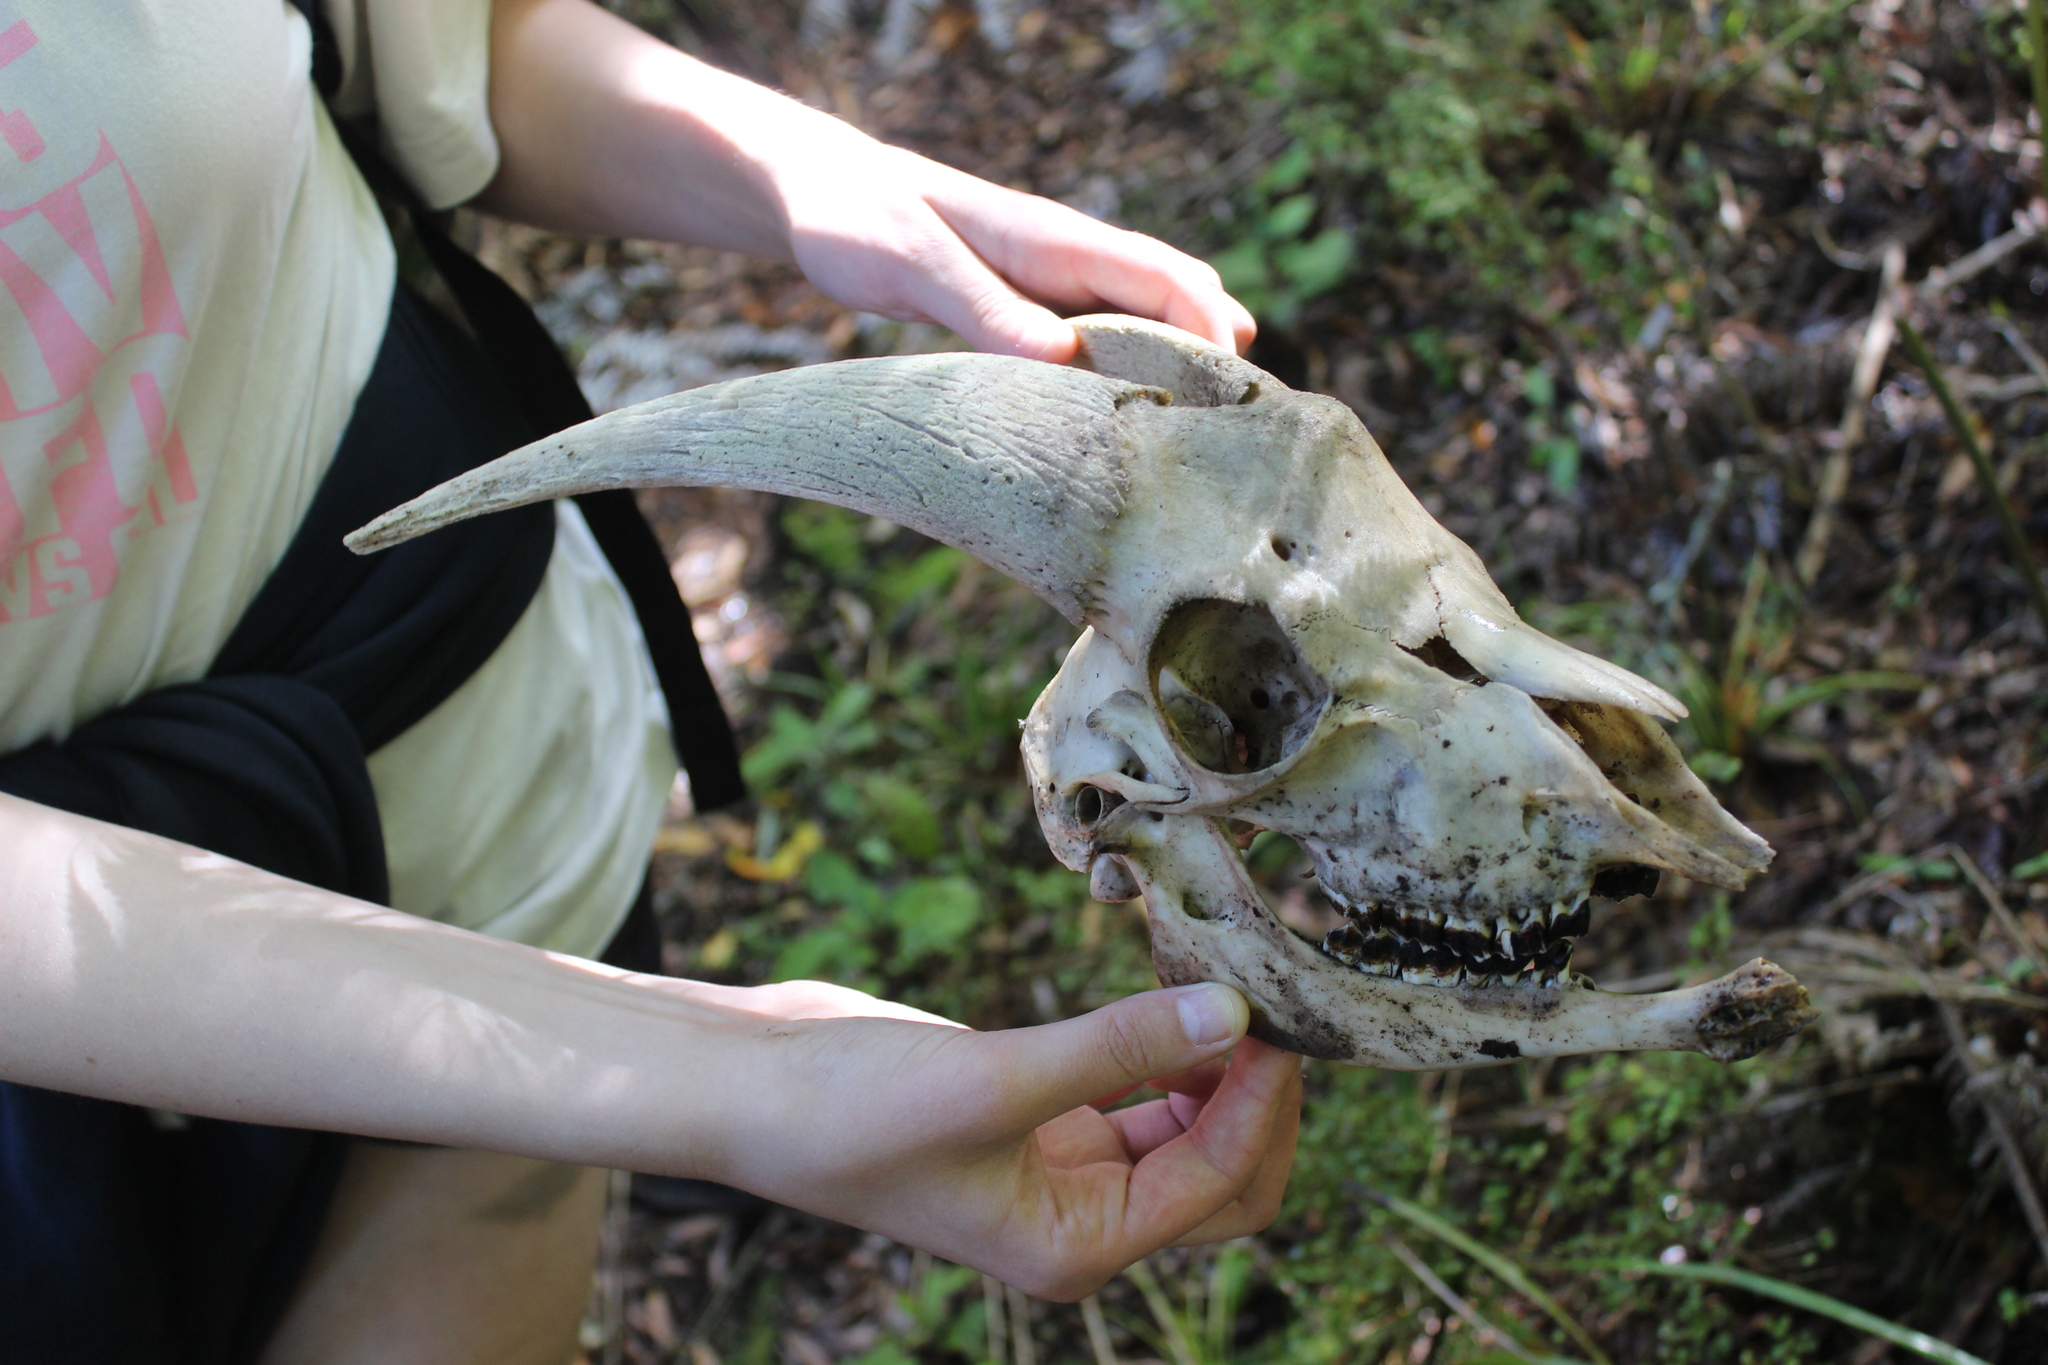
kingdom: Animalia
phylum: Chordata
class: Mammalia
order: Artiodactyla
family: Bovidae
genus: Capra
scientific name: Capra hircus
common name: Domestic goat
